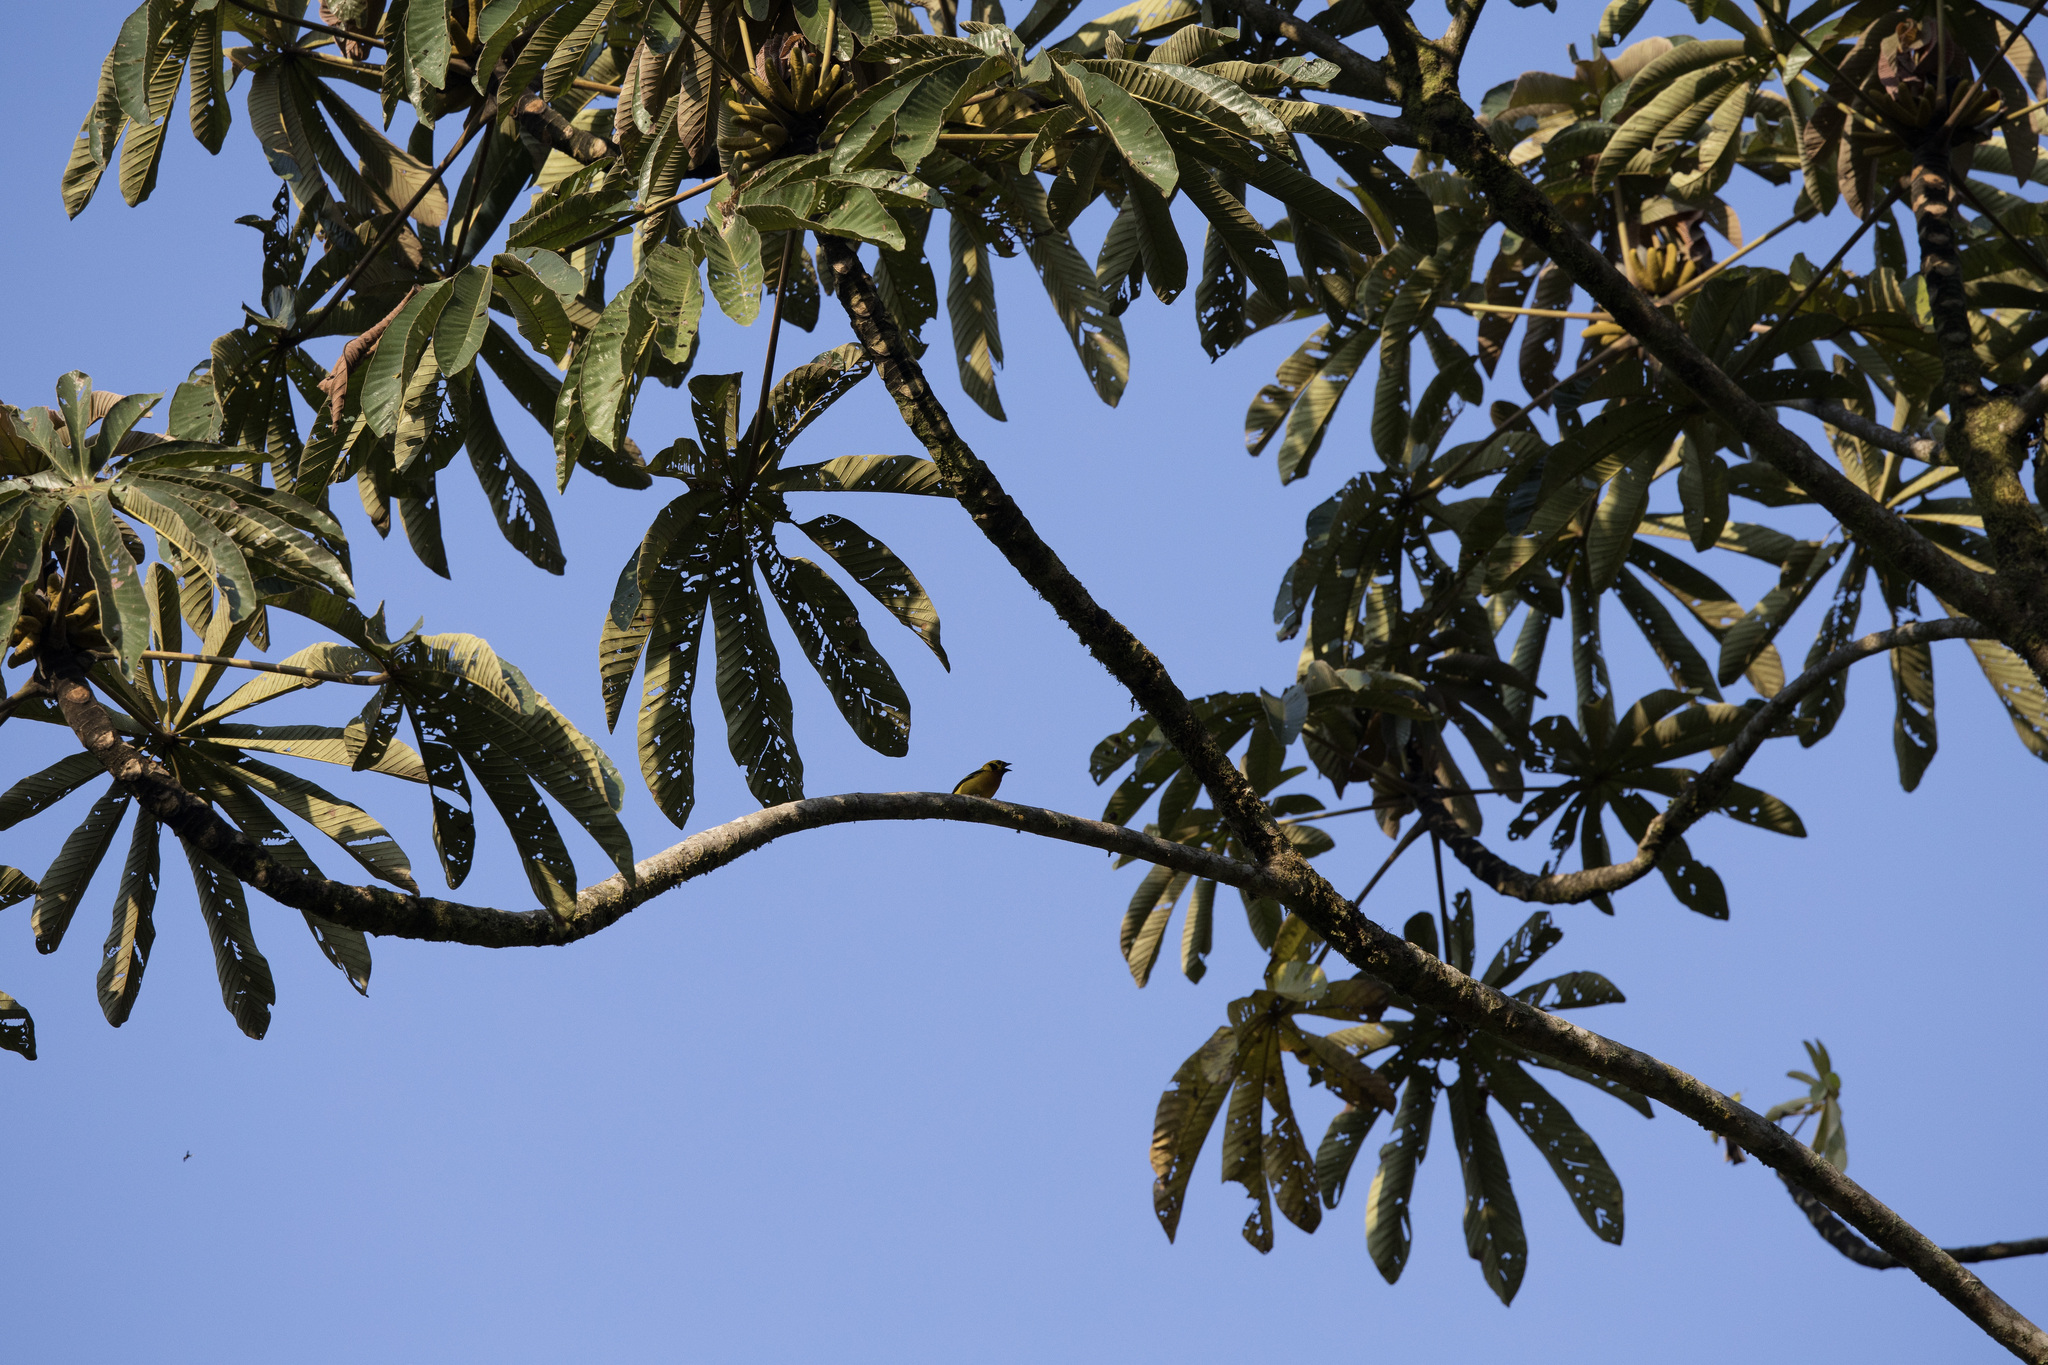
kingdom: Animalia
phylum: Chordata
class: Aves
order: Passeriformes
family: Thraupidae
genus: Tangara
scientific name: Tangara arthus
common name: Golden tanager
